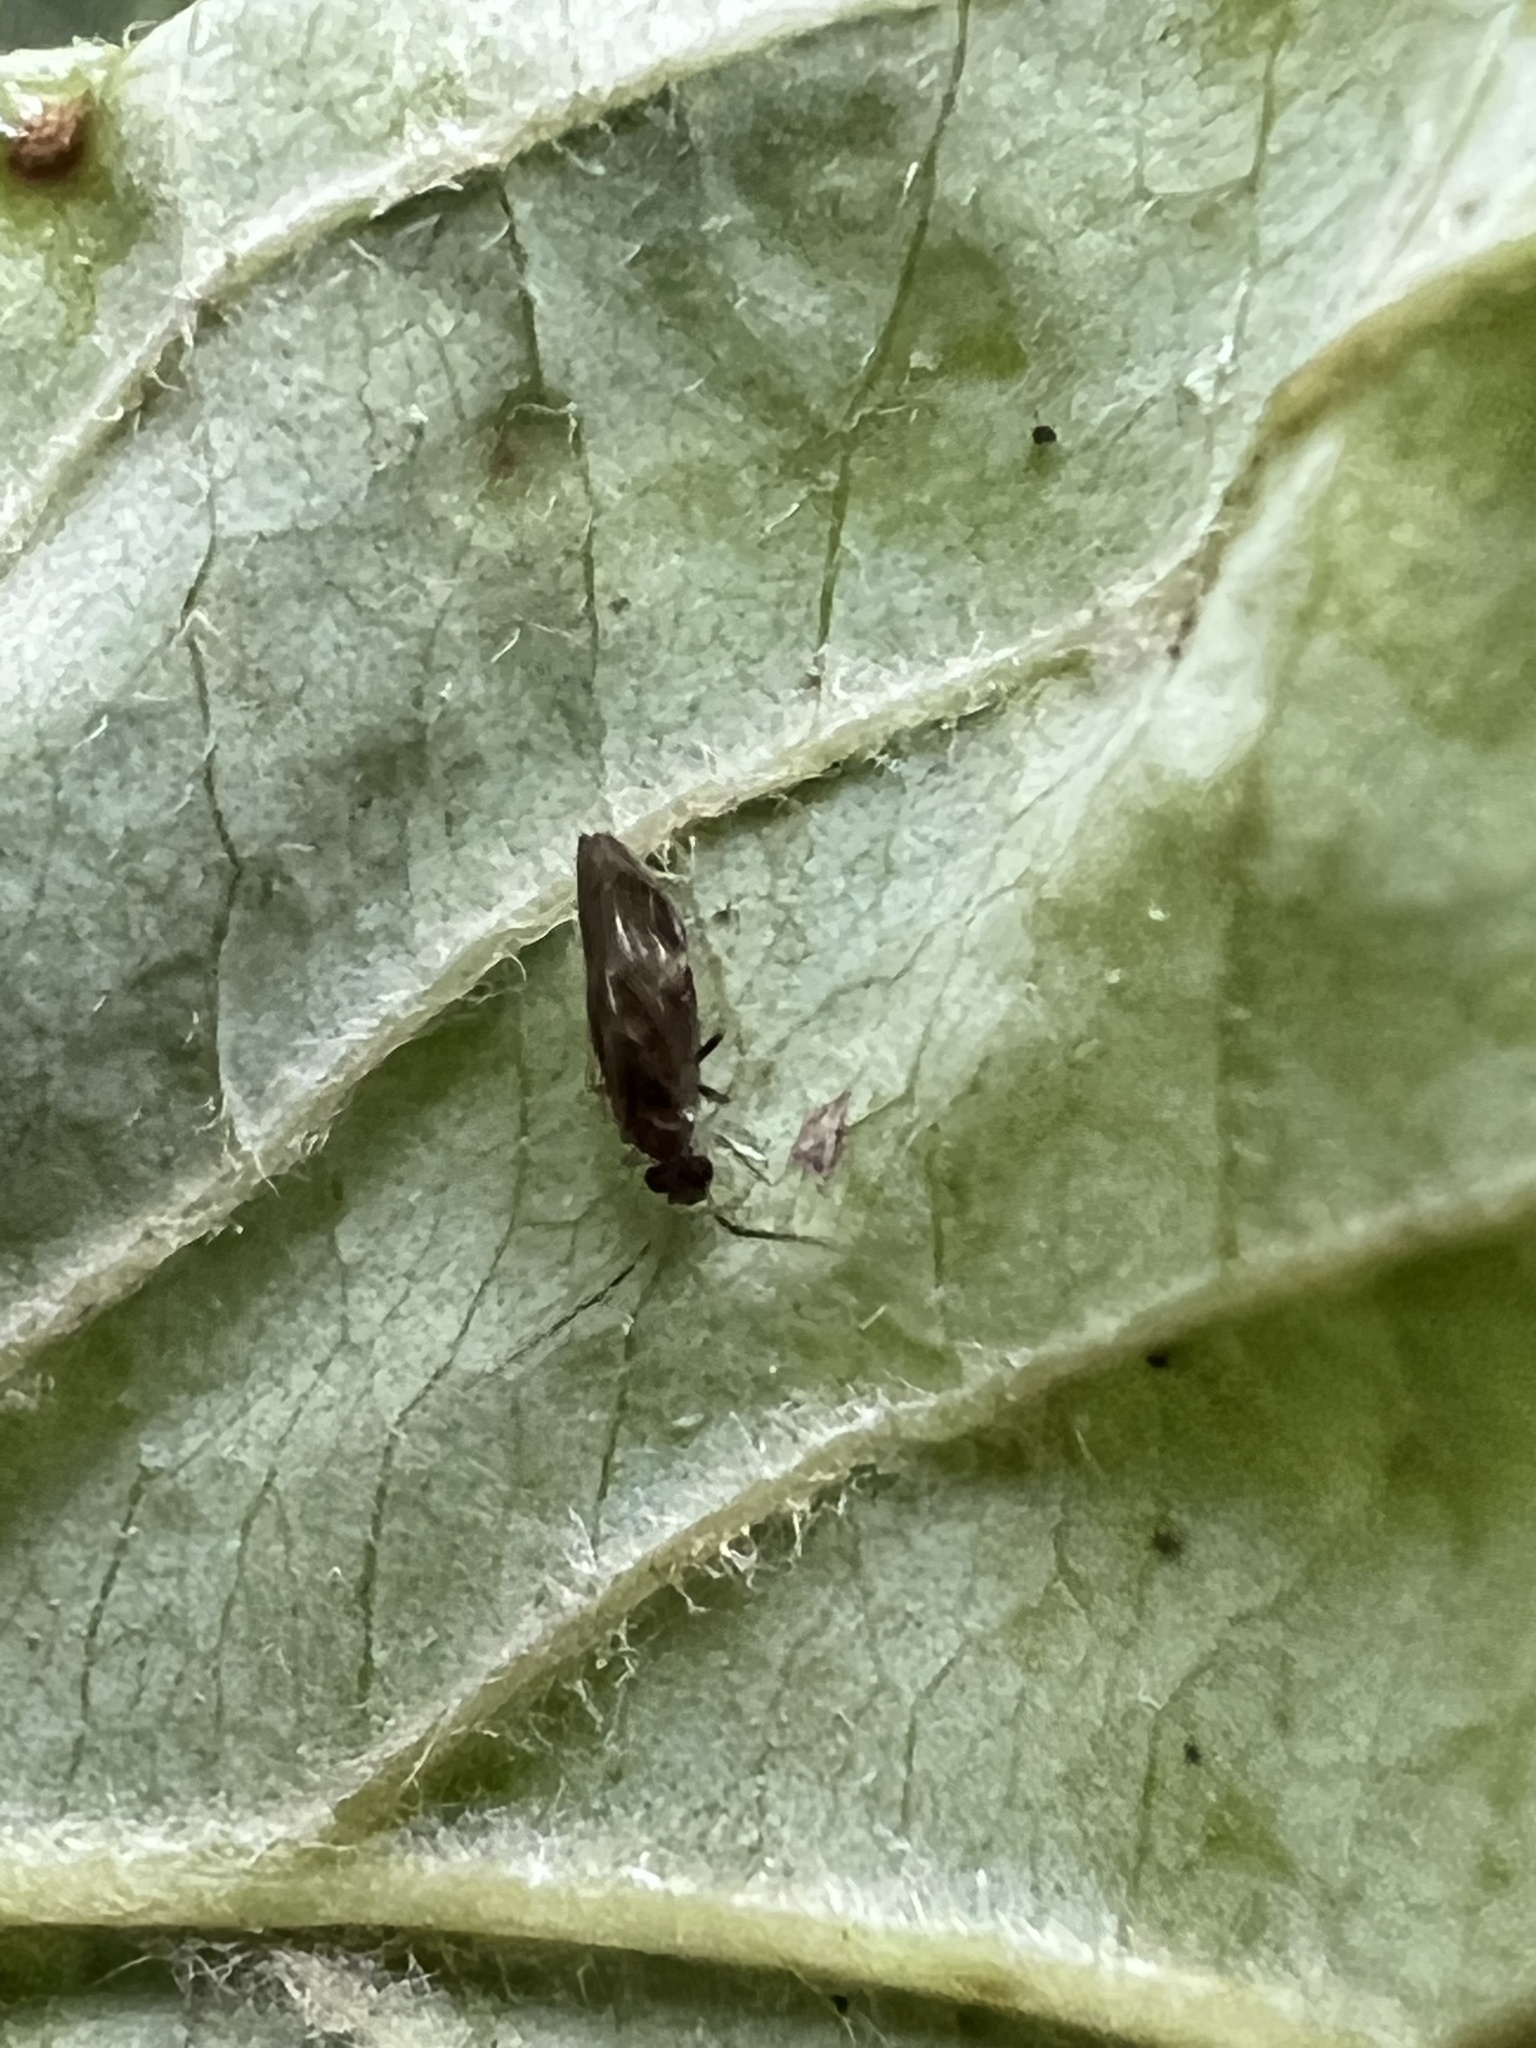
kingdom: Animalia
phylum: Arthropoda
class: Insecta
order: Psocodea
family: Amphipsocidae
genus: Polypsocus
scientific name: Polypsocus corruptus
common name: Corrupt barklouse
